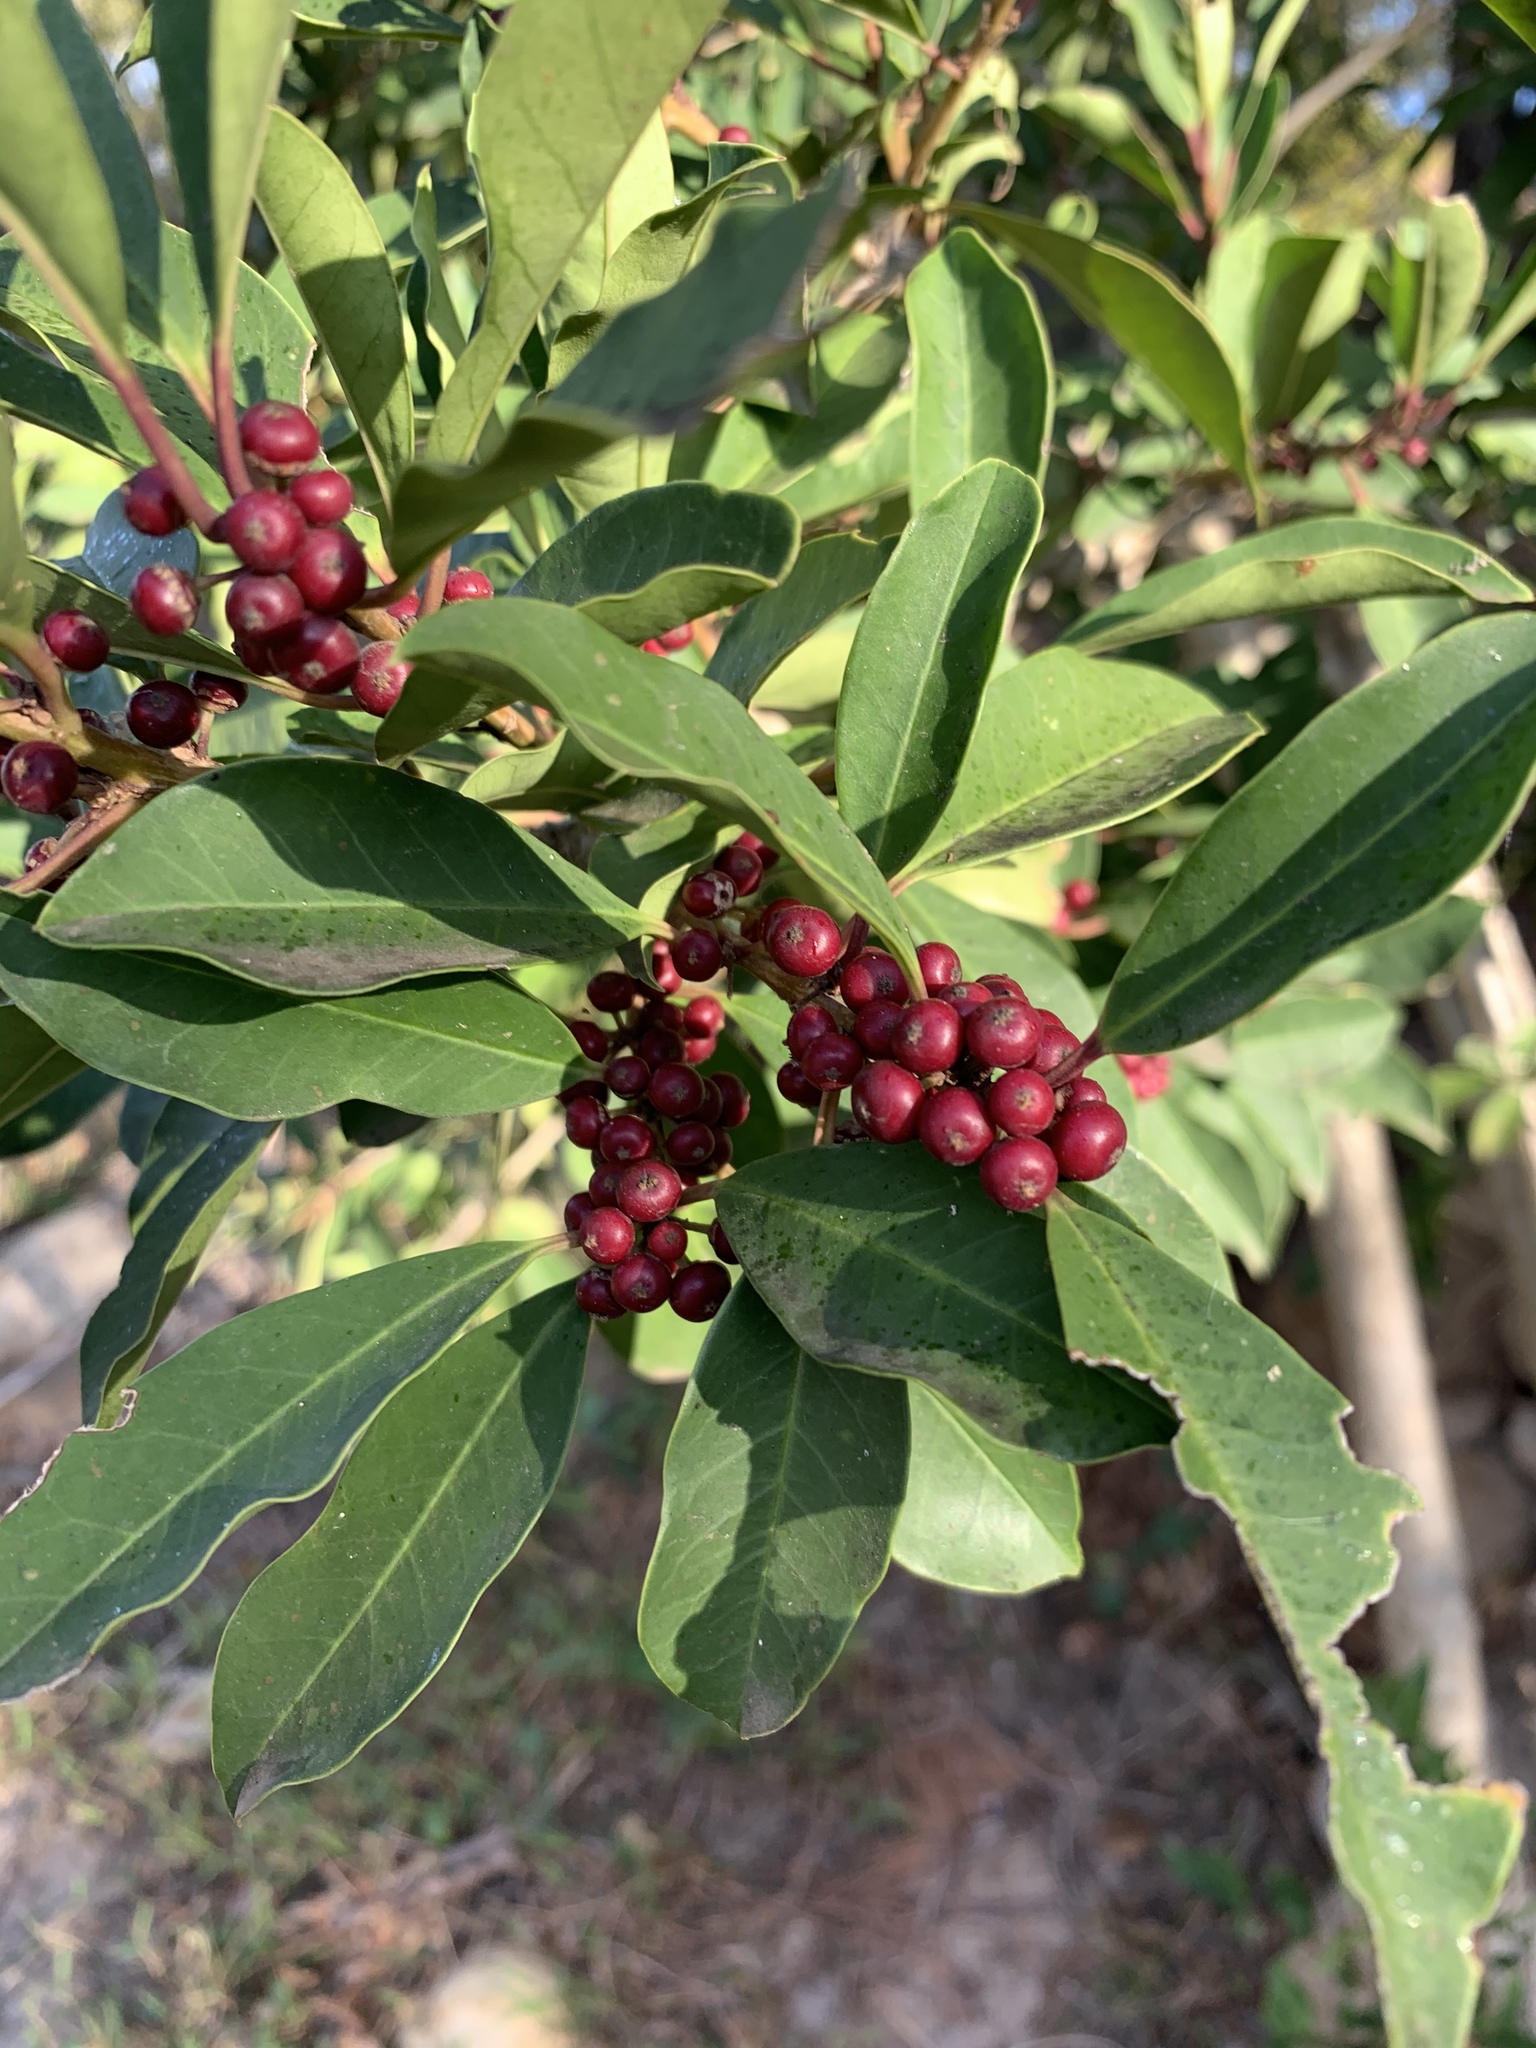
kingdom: Plantae
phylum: Tracheophyta
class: Magnoliopsida
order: Aquifoliales
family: Aquifoliaceae
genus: Ilex
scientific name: Ilex mitis
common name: African holly
